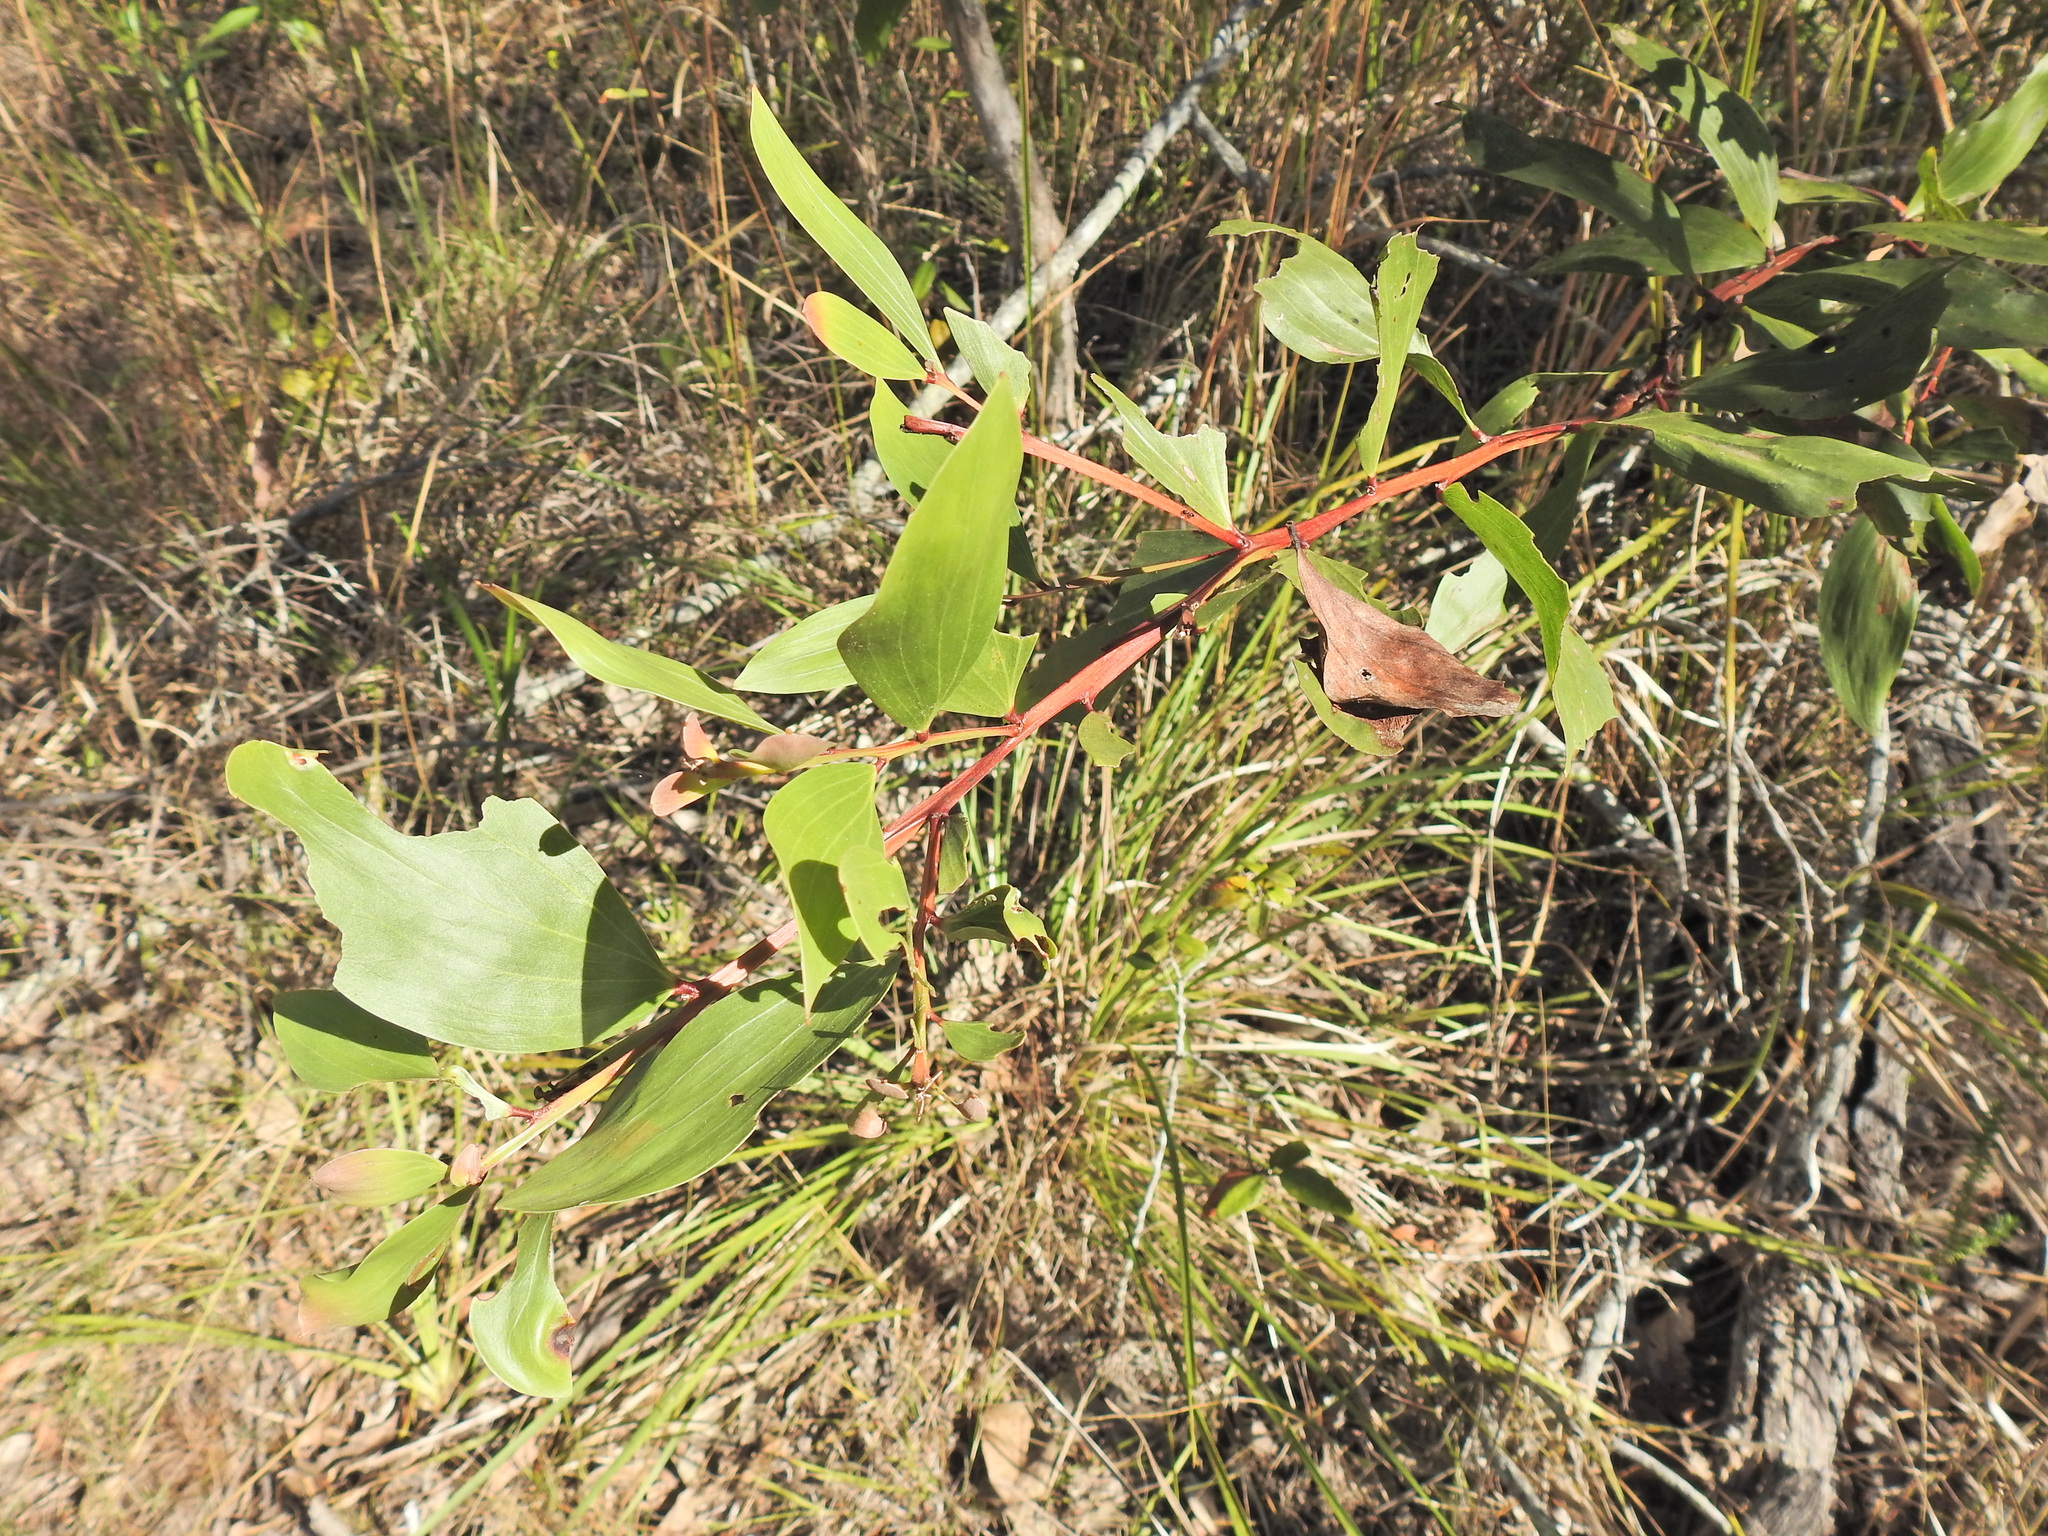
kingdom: Plantae
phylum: Tracheophyta
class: Magnoliopsida
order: Fabales
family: Fabaceae
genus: Acacia
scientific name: Acacia leiocalyx
